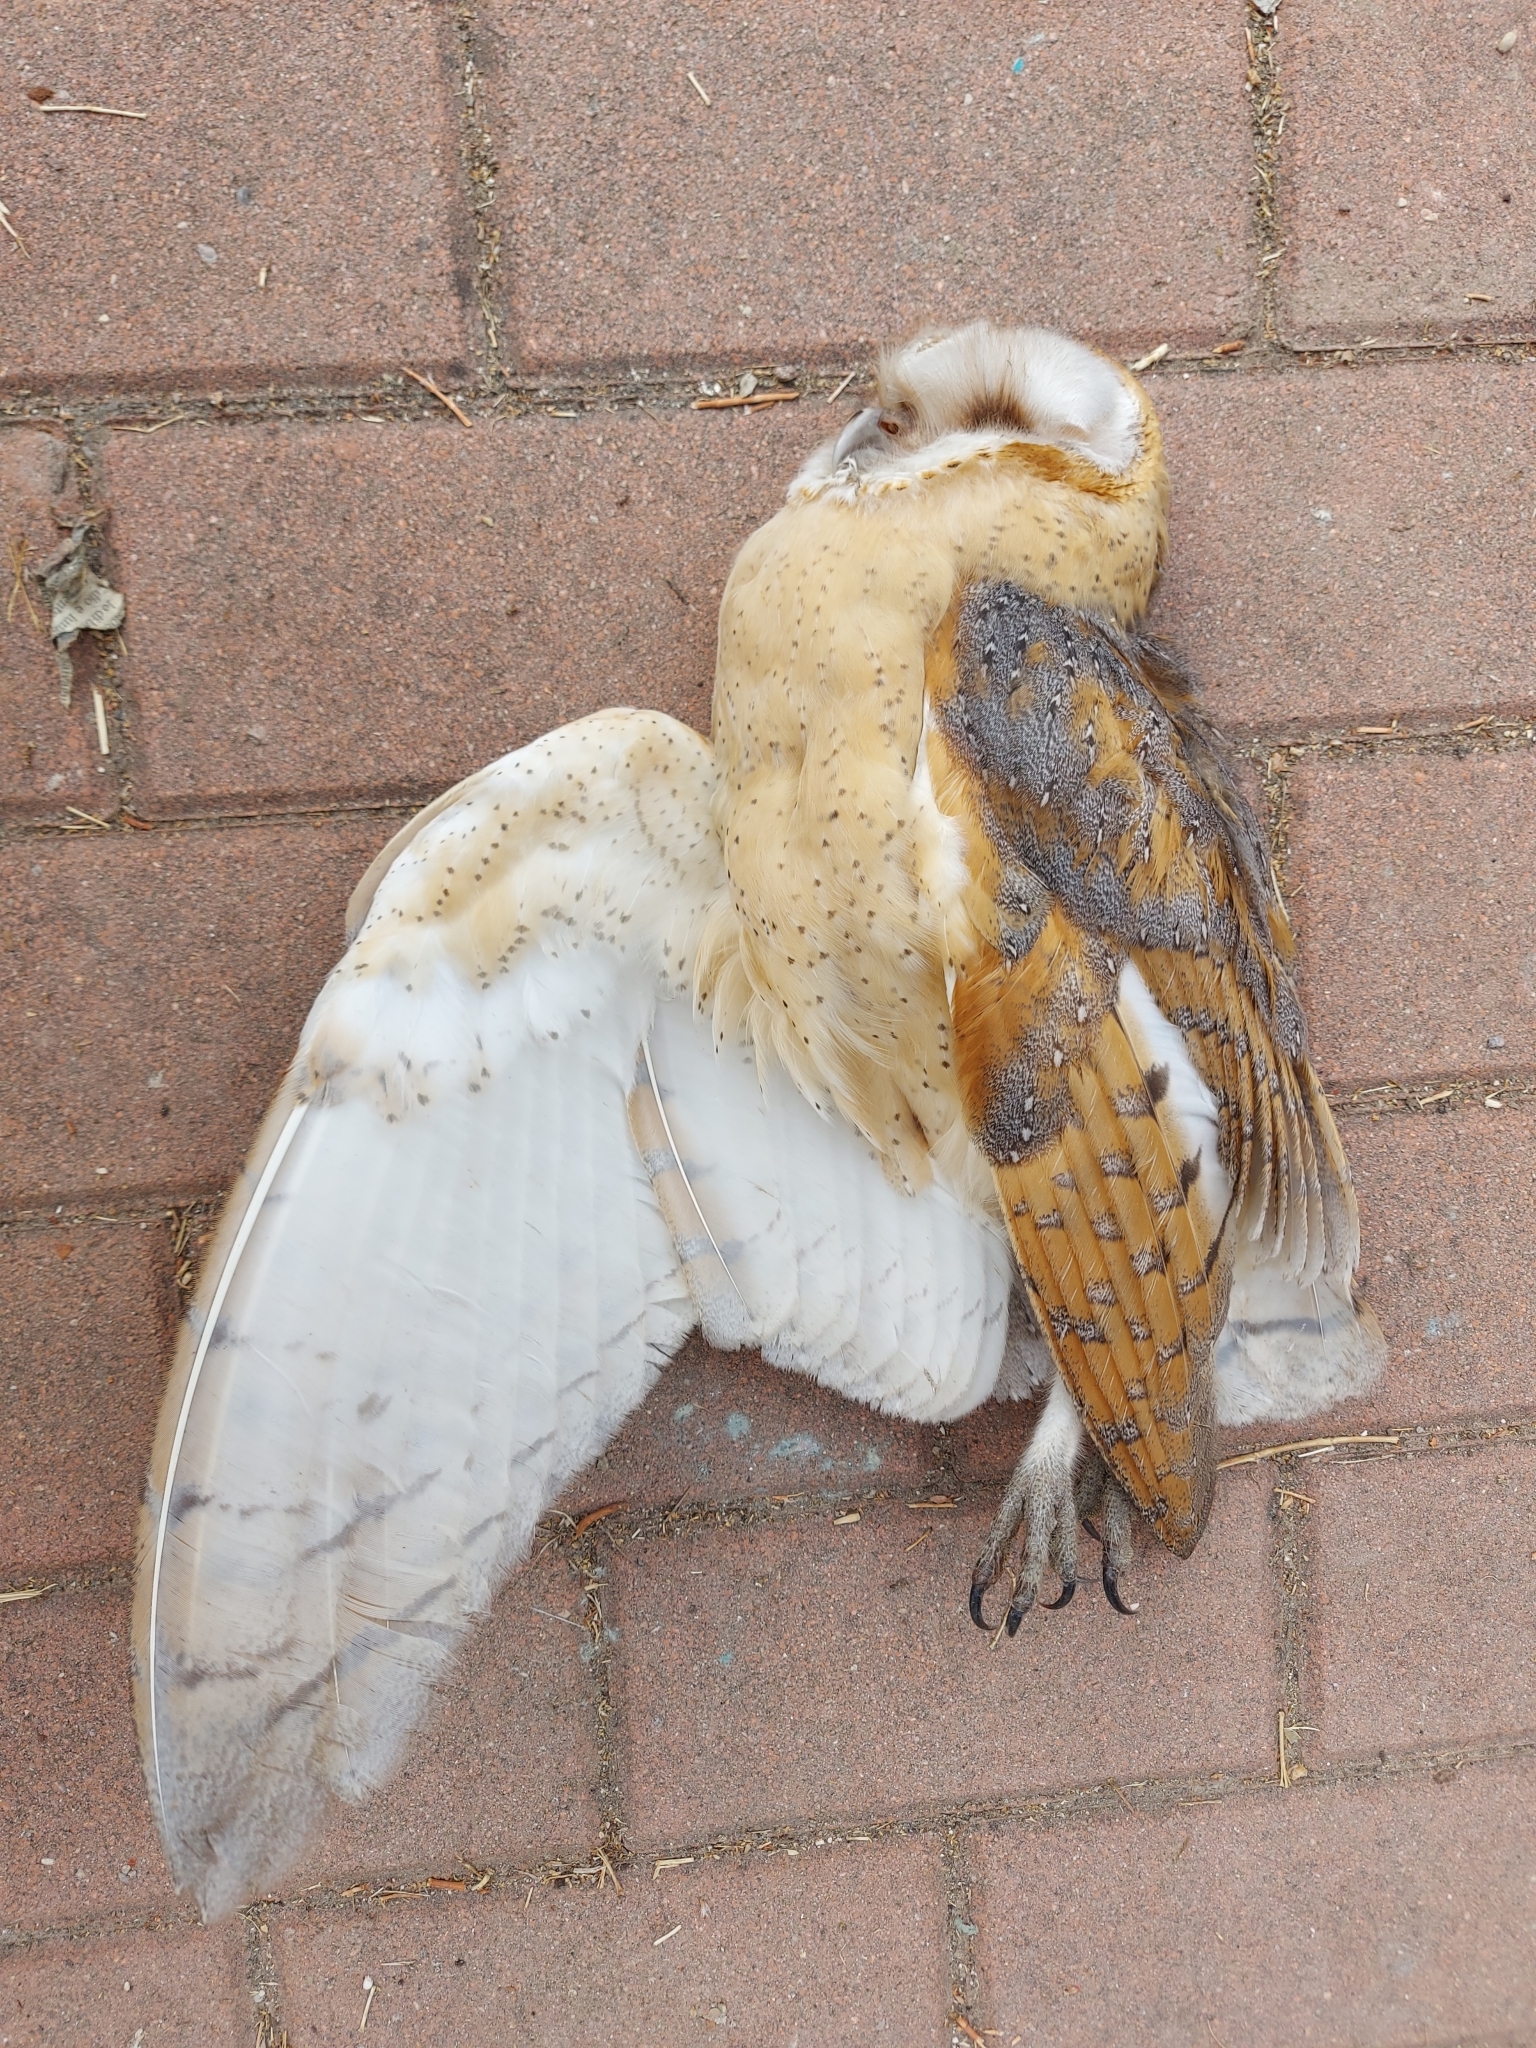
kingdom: Animalia
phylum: Chordata
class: Aves
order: Strigiformes
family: Tytonidae
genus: Tyto
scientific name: Tyto alba
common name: Barn owl
